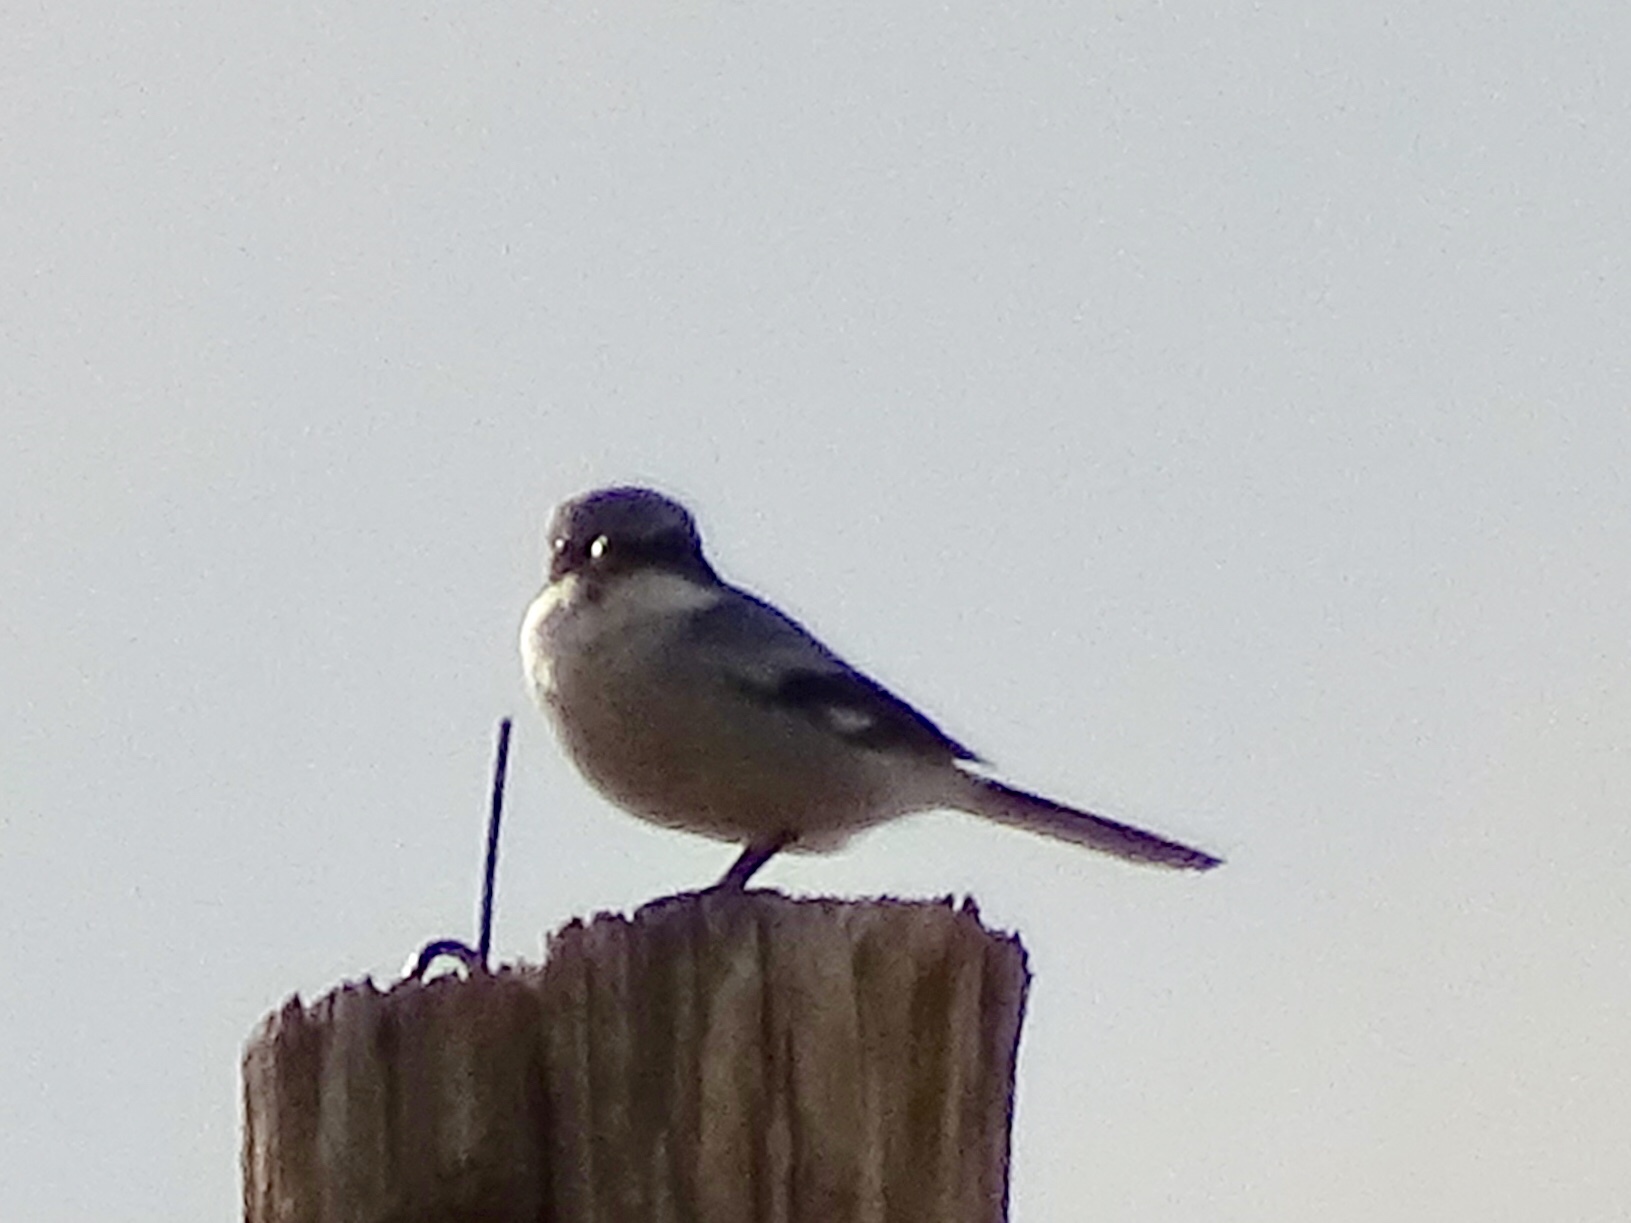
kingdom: Animalia
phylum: Chordata
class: Aves
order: Passeriformes
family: Laniidae
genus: Lanius
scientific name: Lanius ludovicianus
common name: Loggerhead shrike
